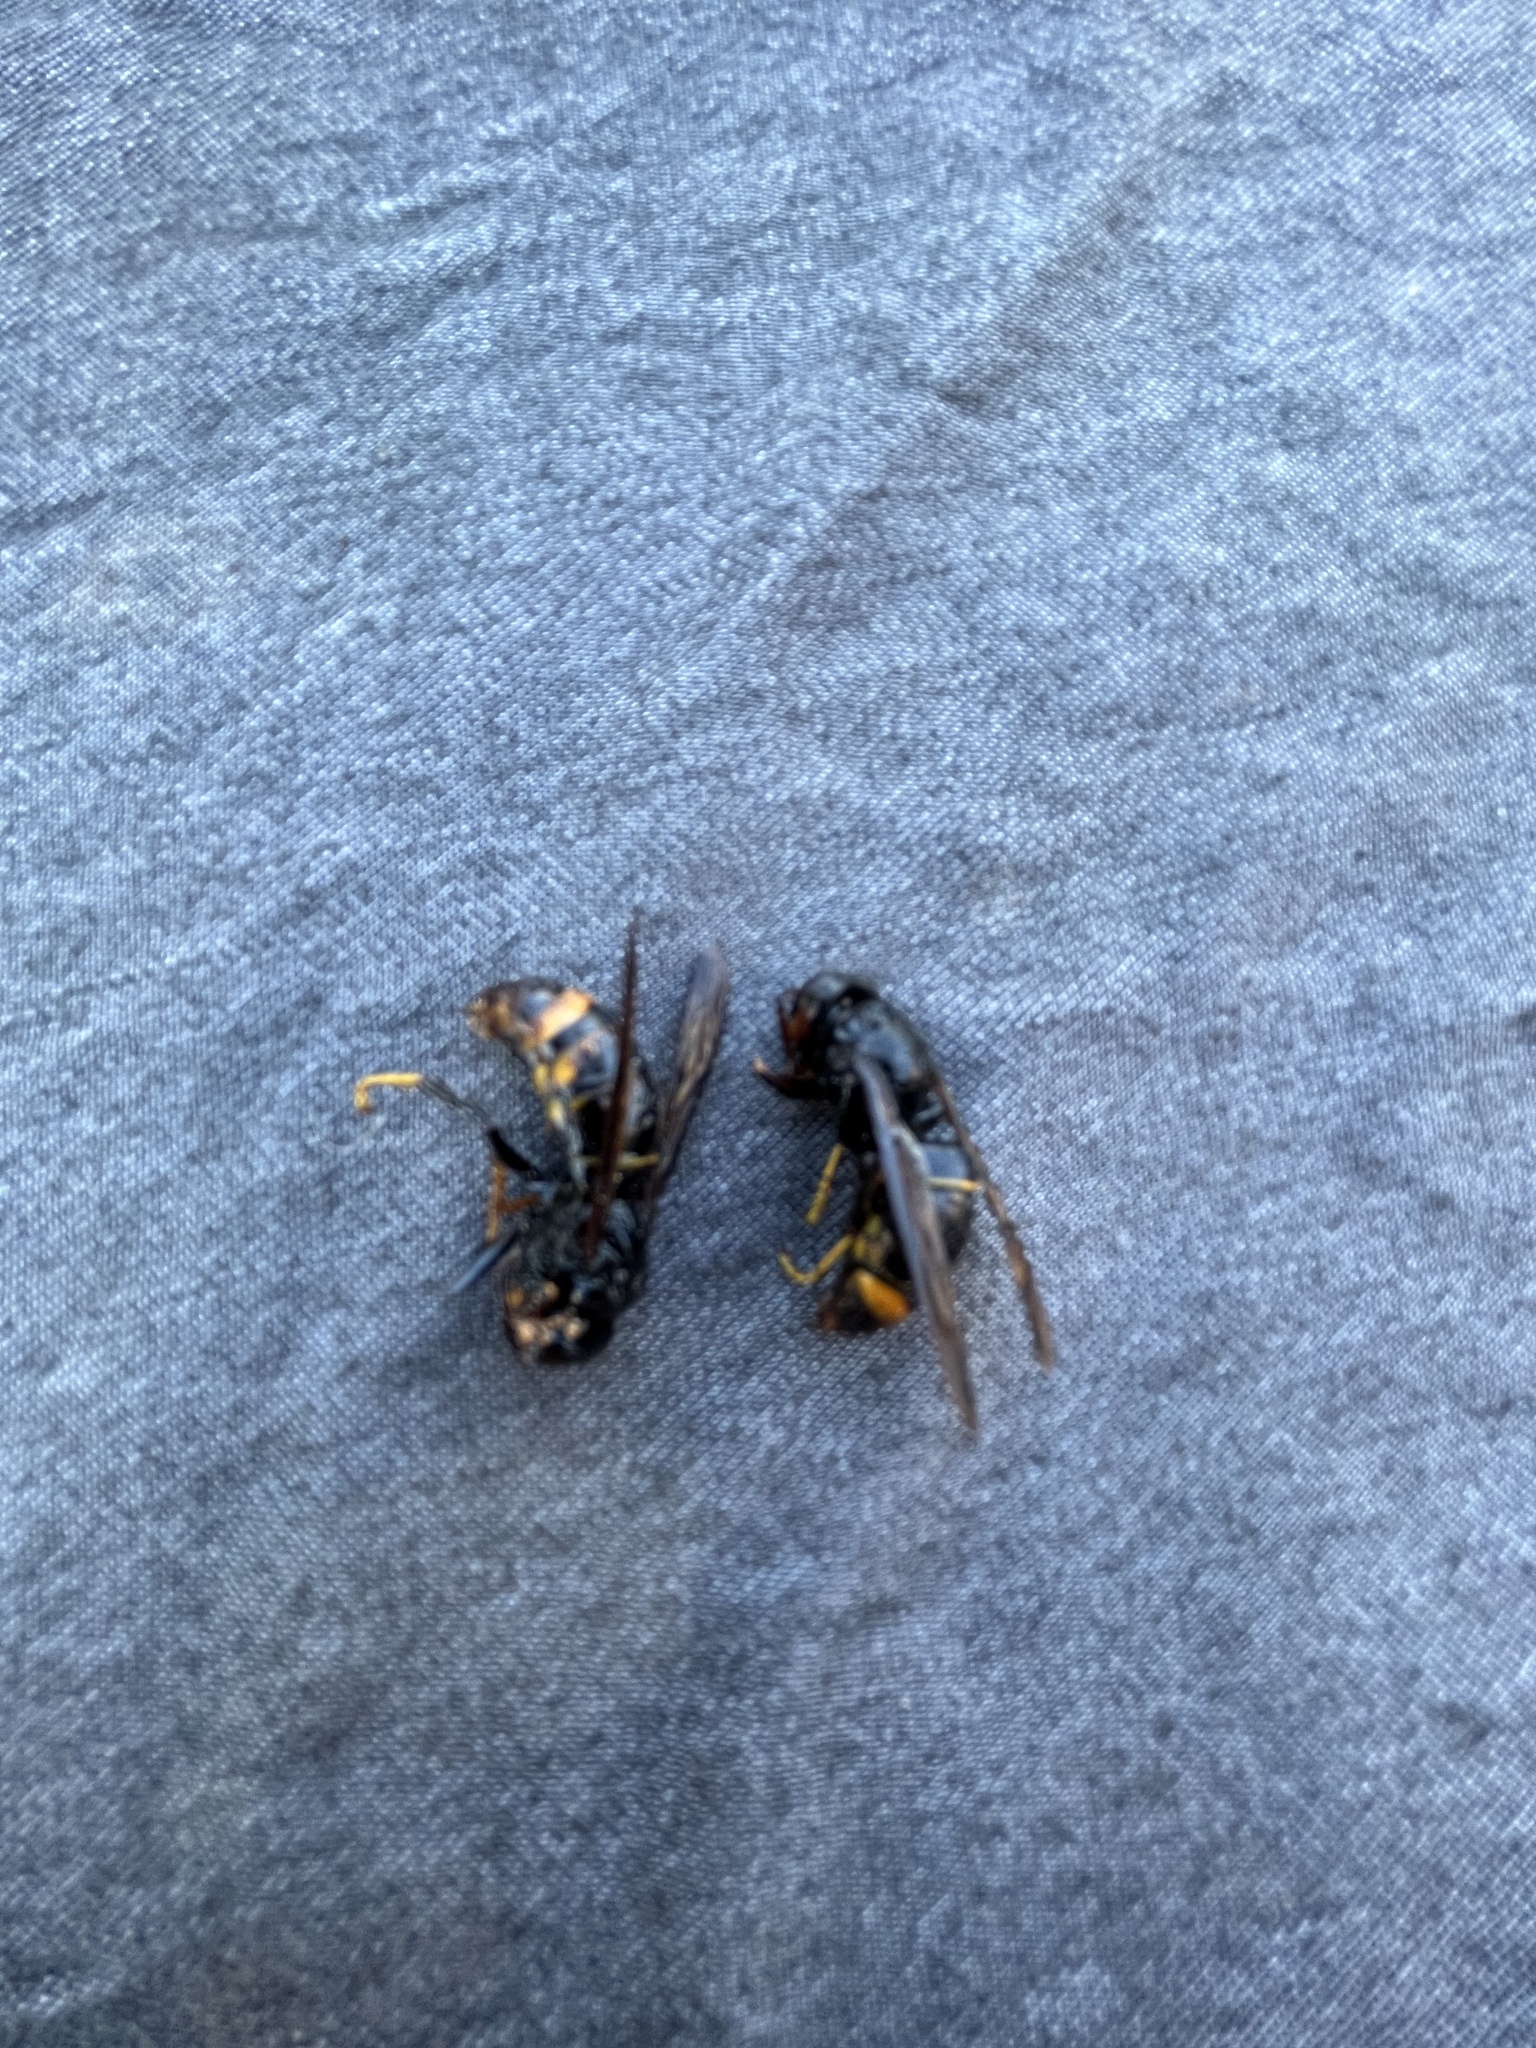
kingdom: Animalia
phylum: Arthropoda
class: Insecta
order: Hymenoptera
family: Vespidae
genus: Vespa
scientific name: Vespa velutina
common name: Asian hornet
